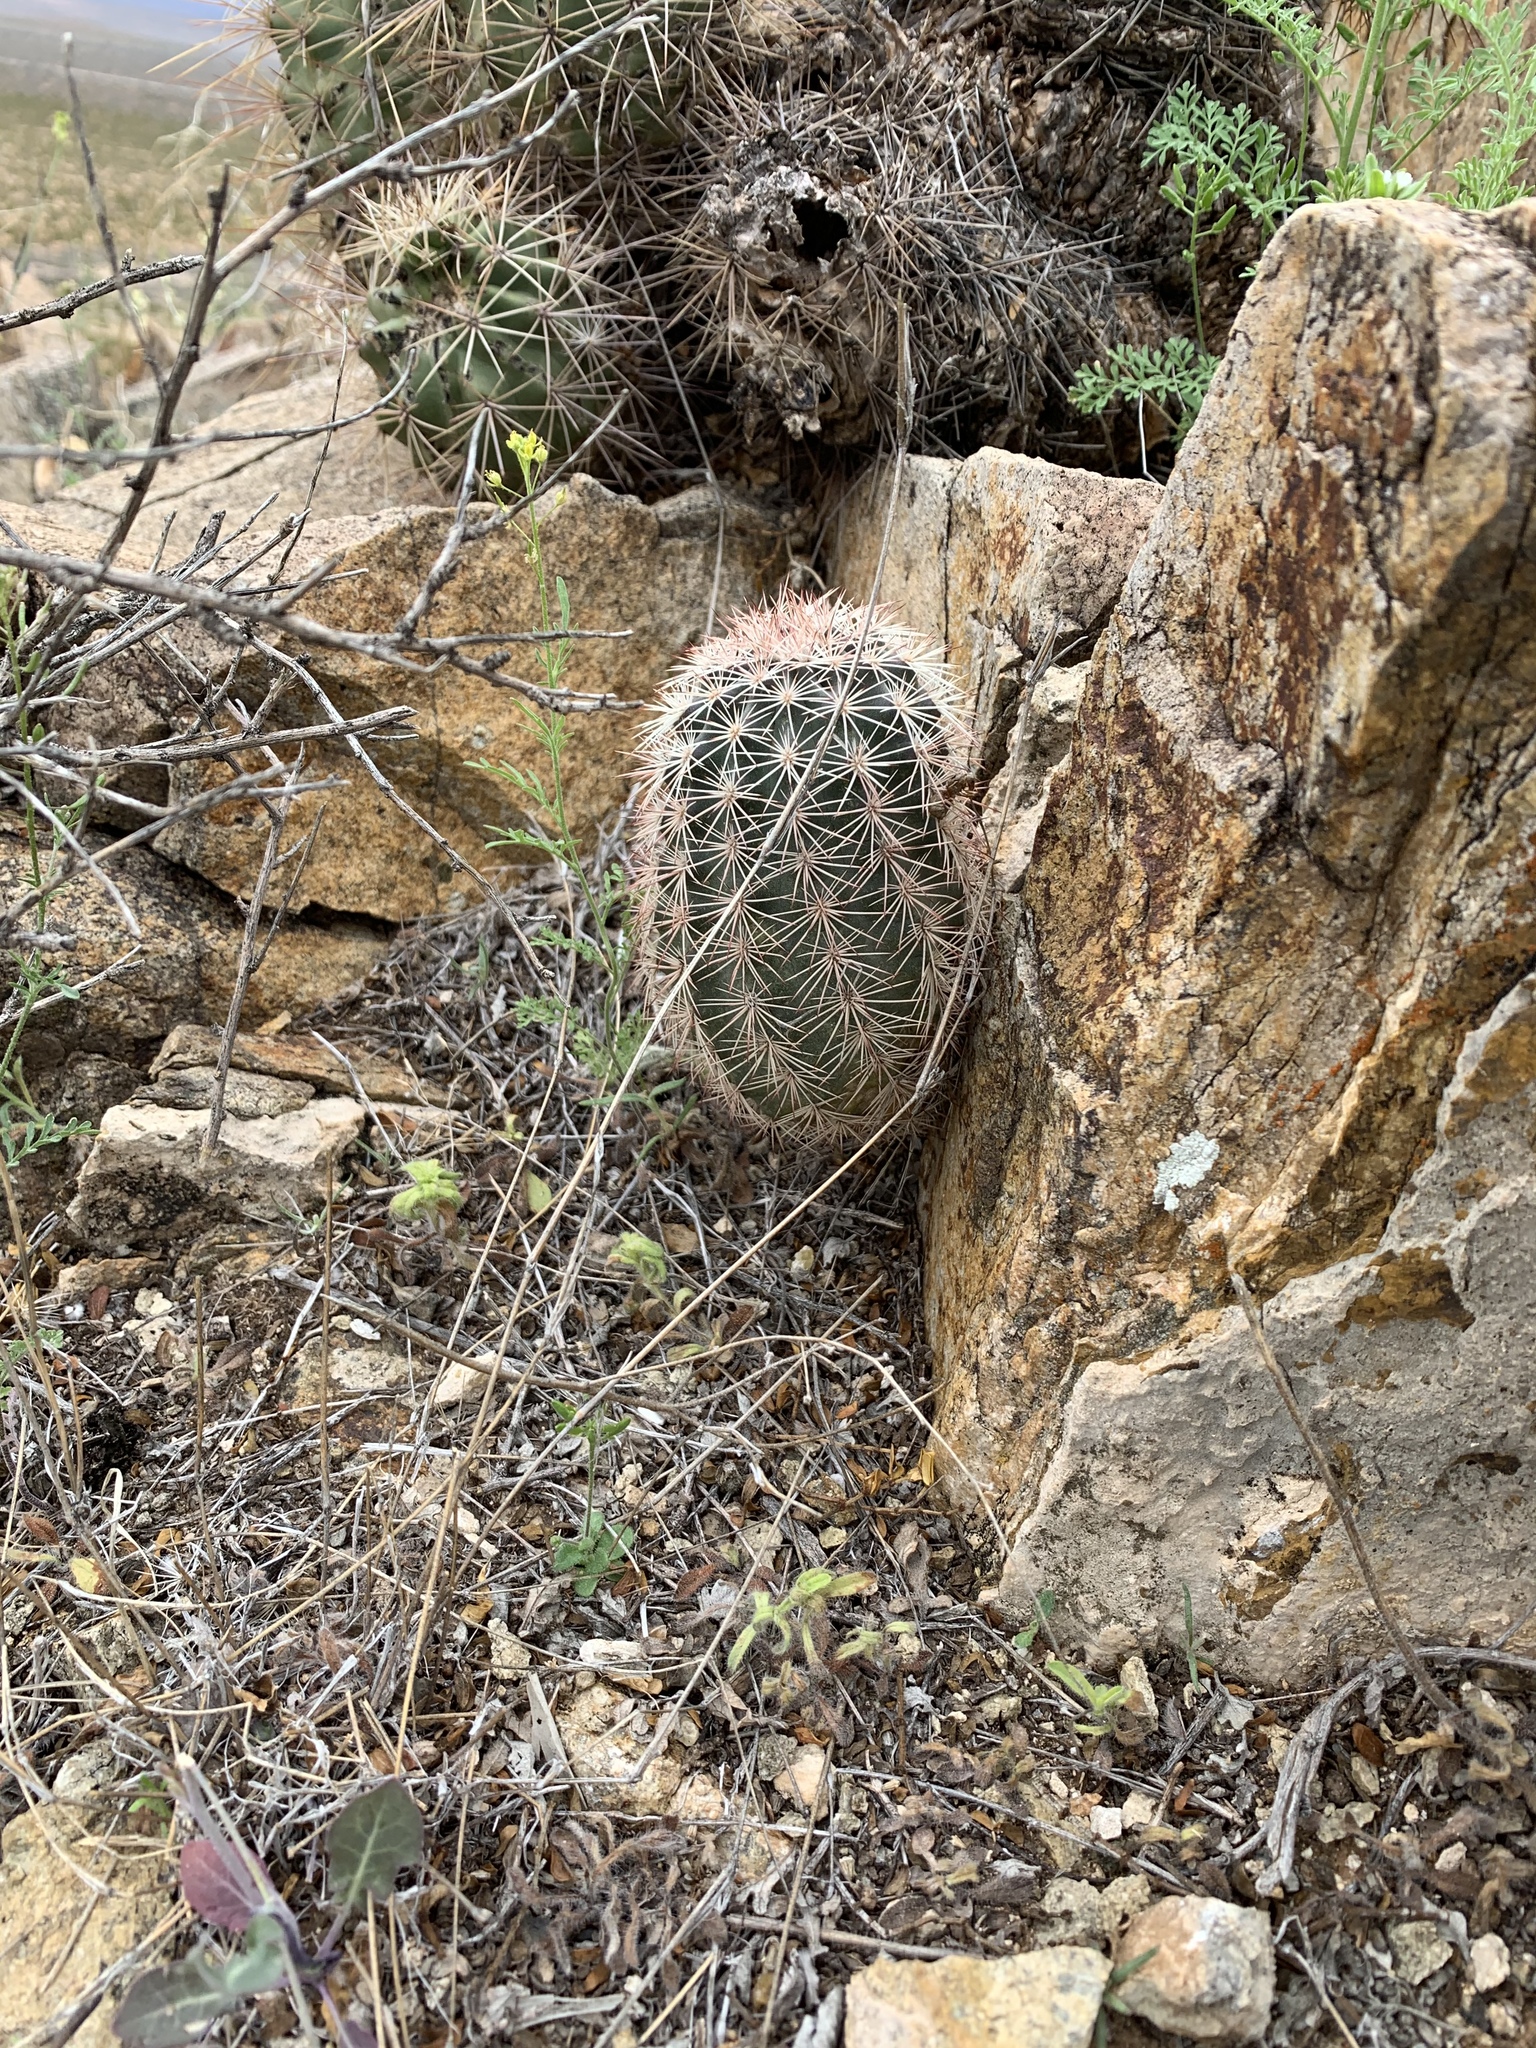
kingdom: Plantae
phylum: Tracheophyta
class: Magnoliopsida
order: Caryophyllales
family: Cactaceae
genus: Echinocereus
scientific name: Echinocereus dasyacanthus
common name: Spiny hedgehog cactus
